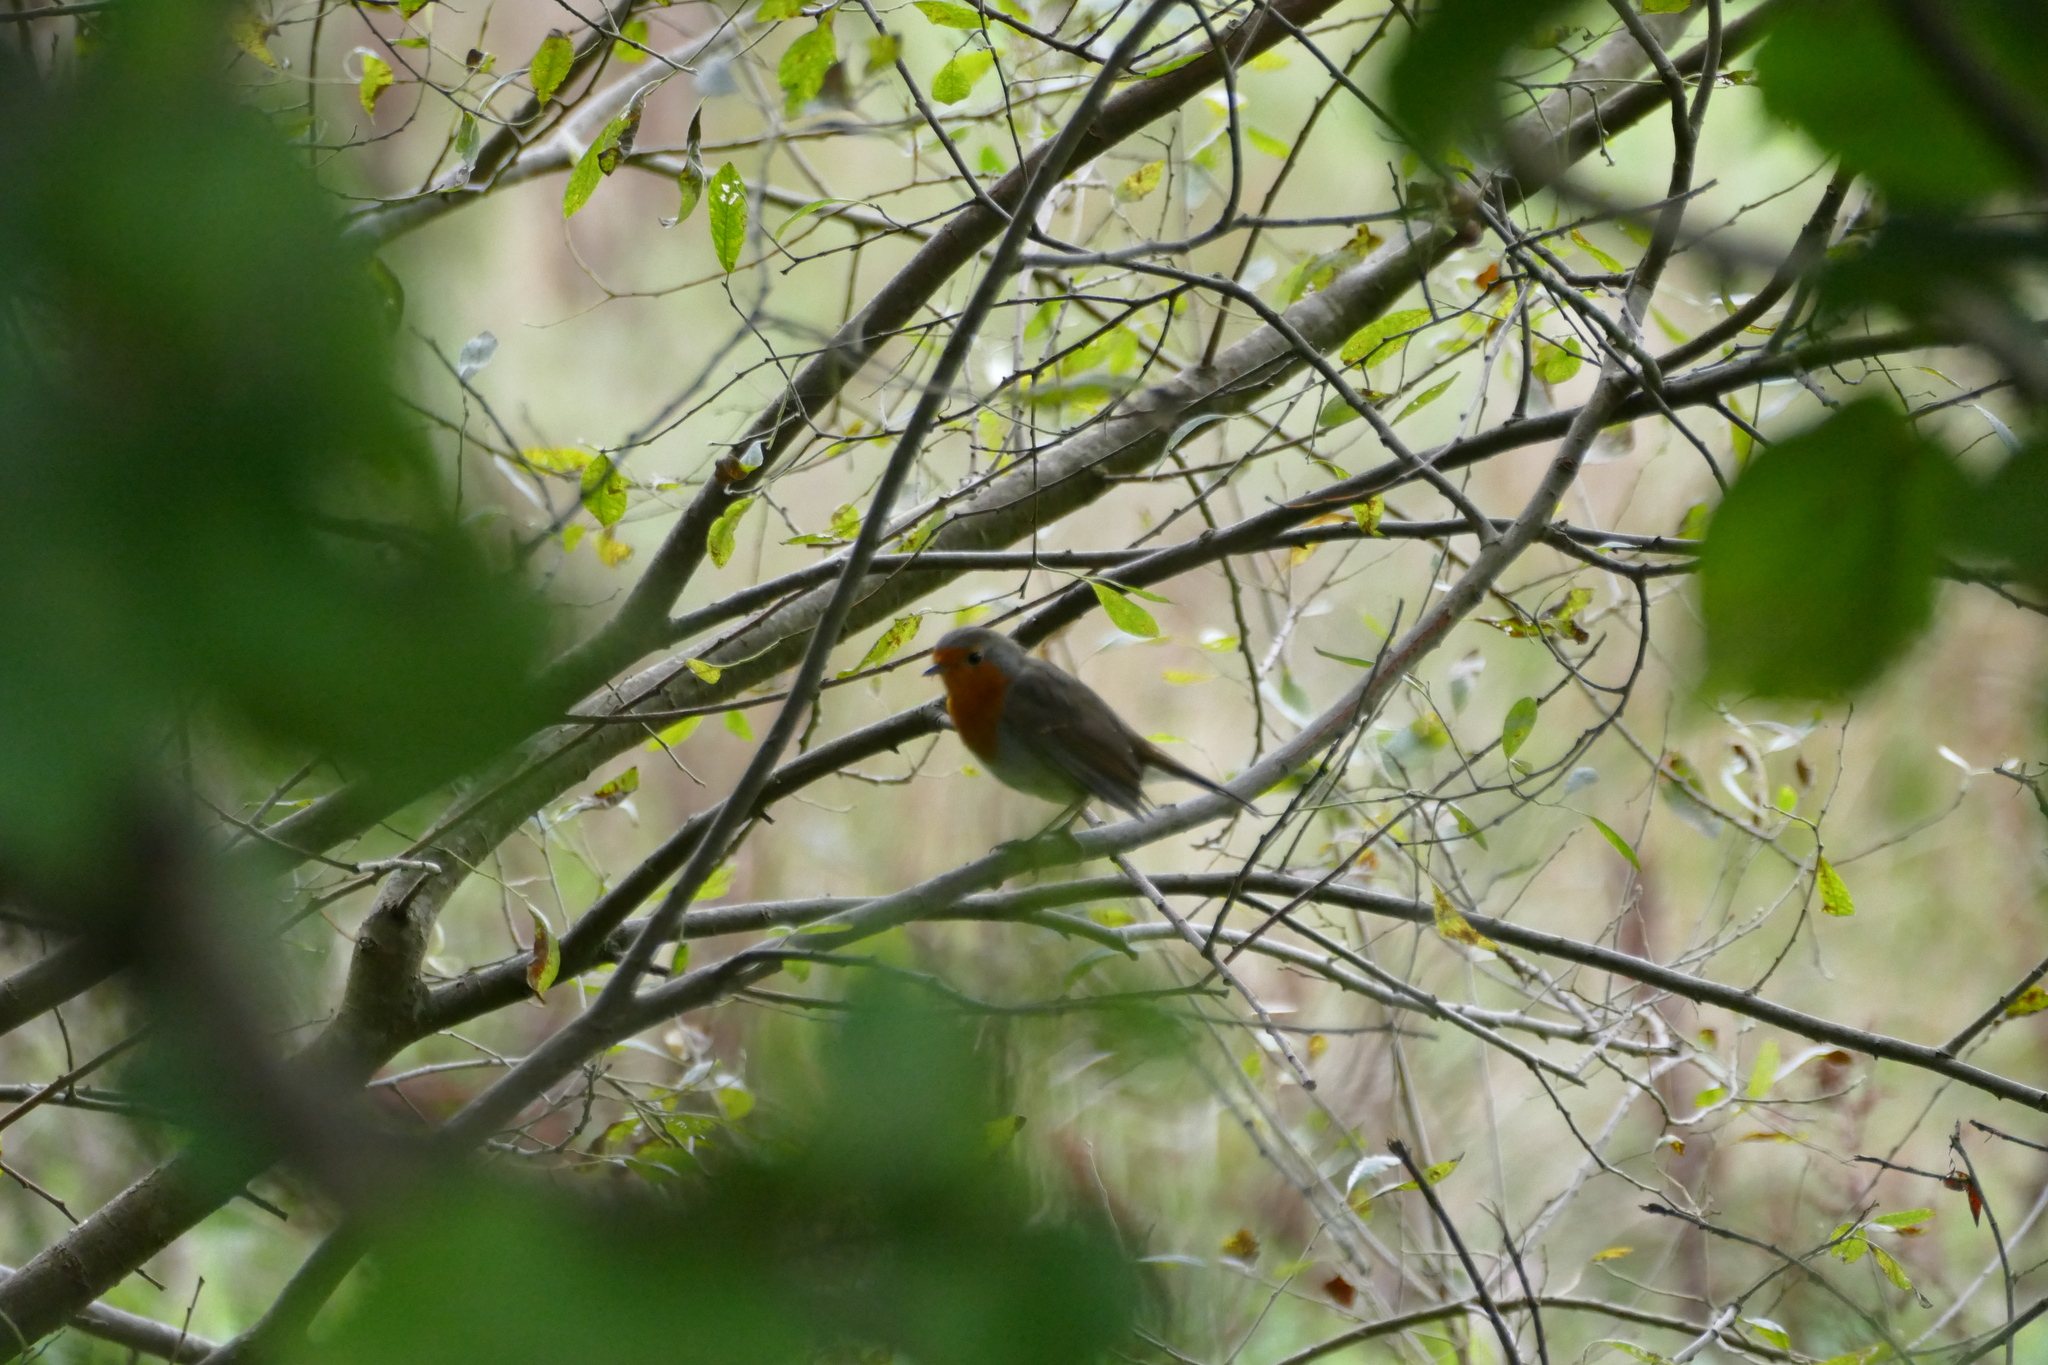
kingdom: Animalia
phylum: Chordata
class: Aves
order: Passeriformes
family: Muscicapidae
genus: Erithacus
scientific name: Erithacus rubecula
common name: European robin
